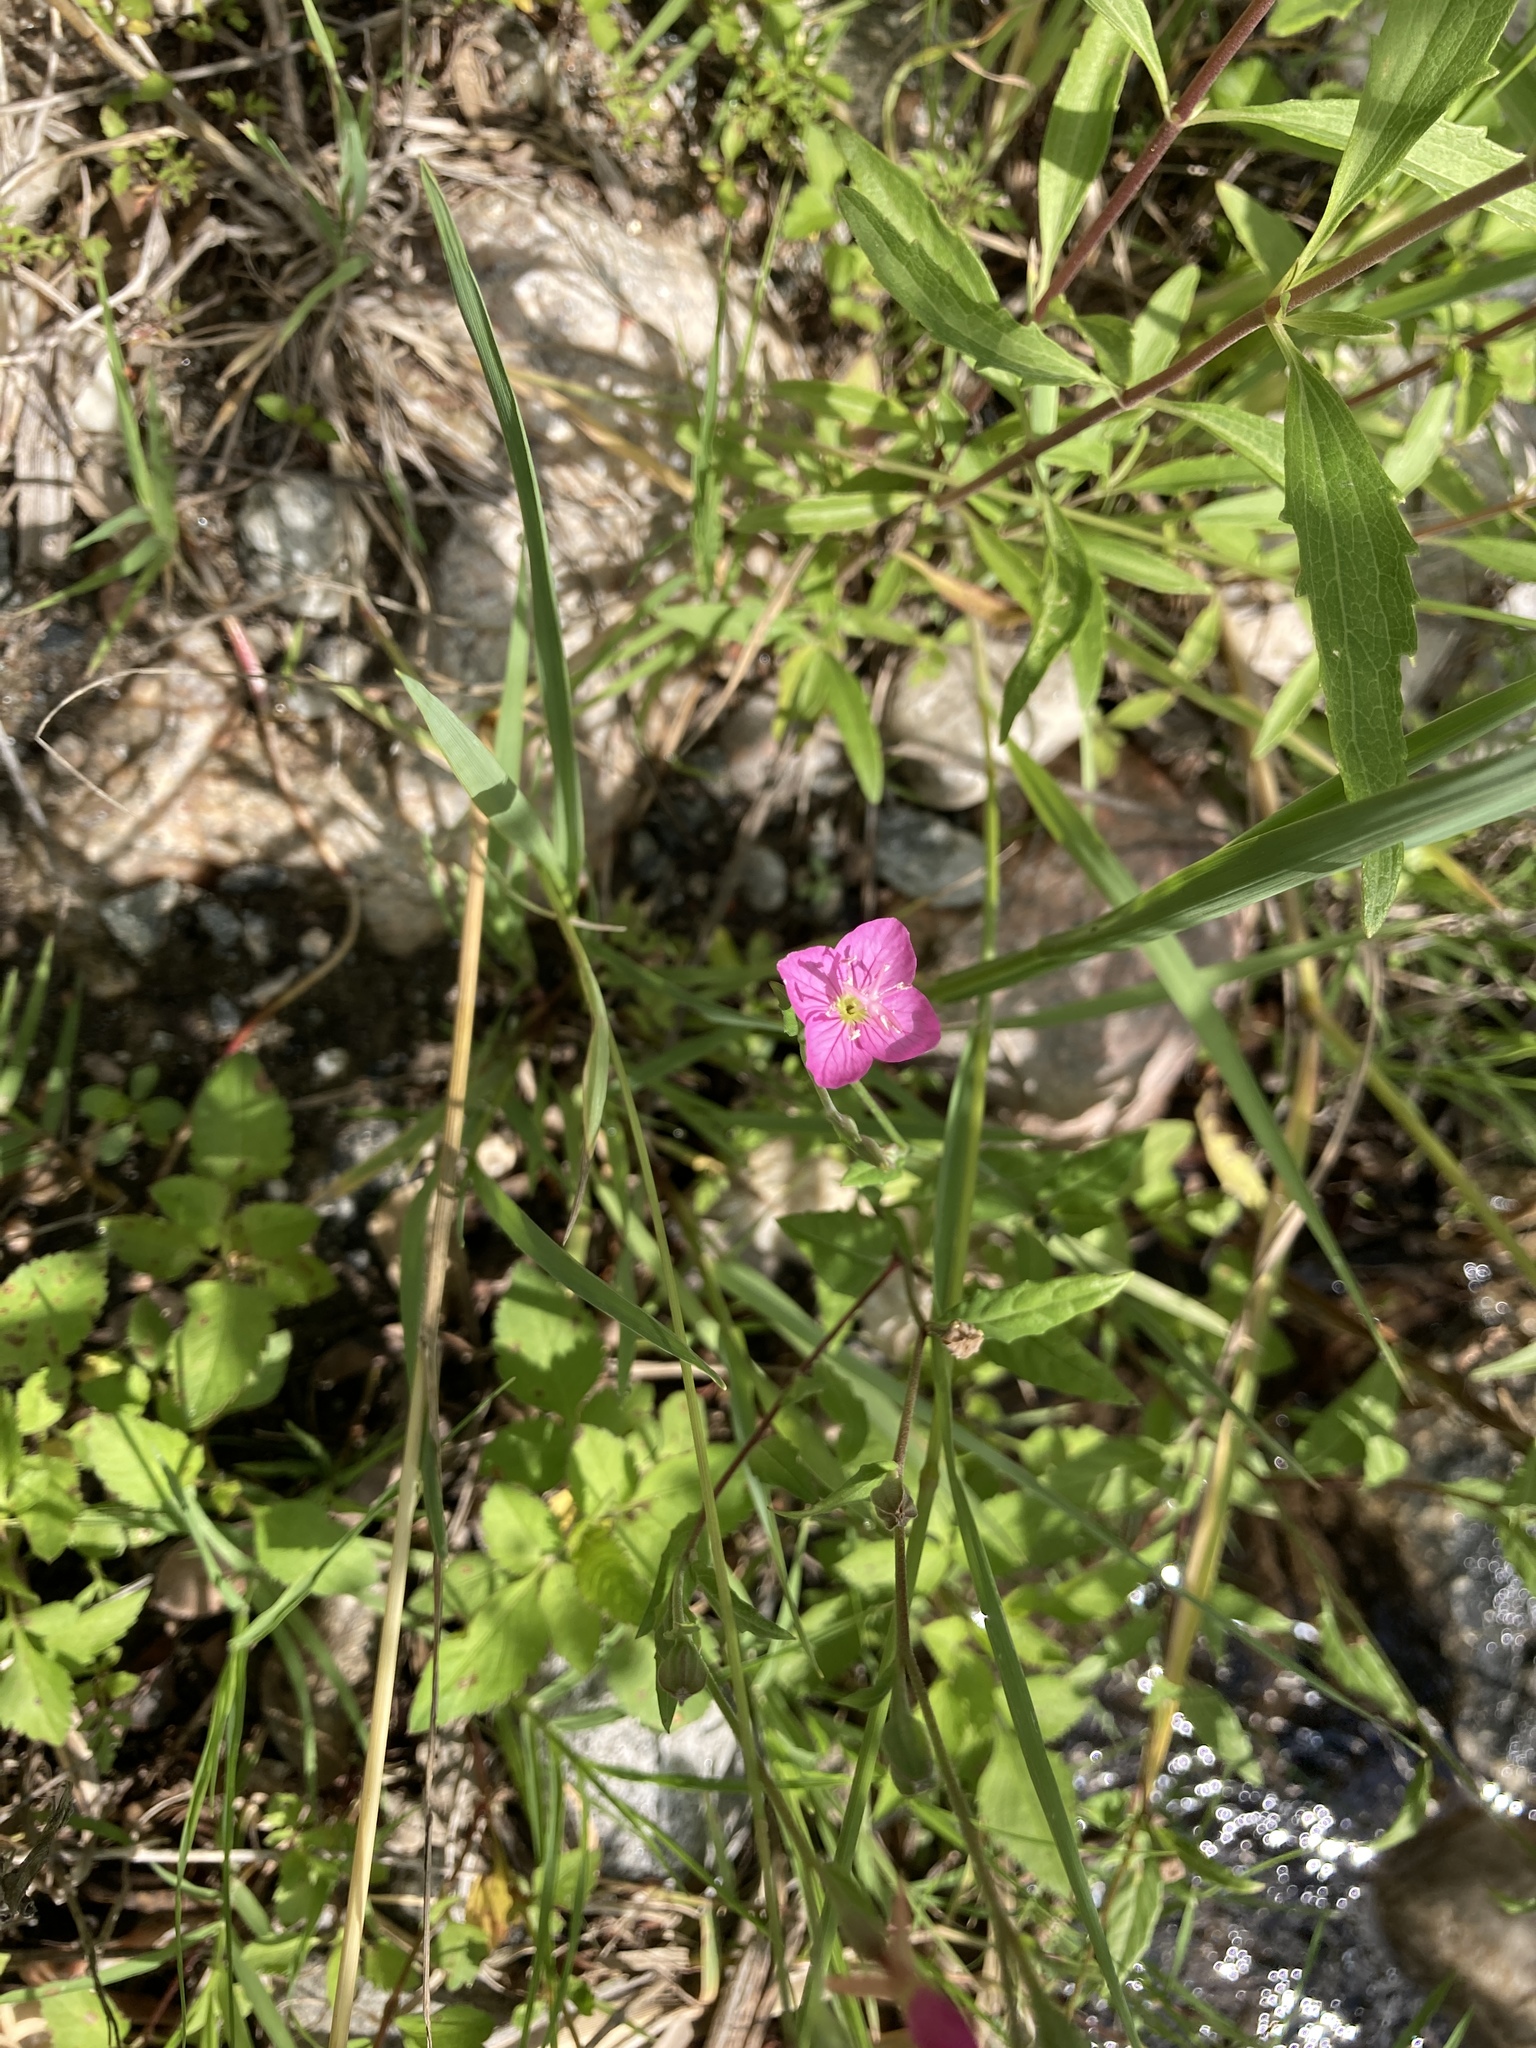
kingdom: Plantae
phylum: Tracheophyta
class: Magnoliopsida
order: Myrtales
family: Onagraceae
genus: Oenothera
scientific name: Oenothera rosea
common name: Rosy evening-primrose
